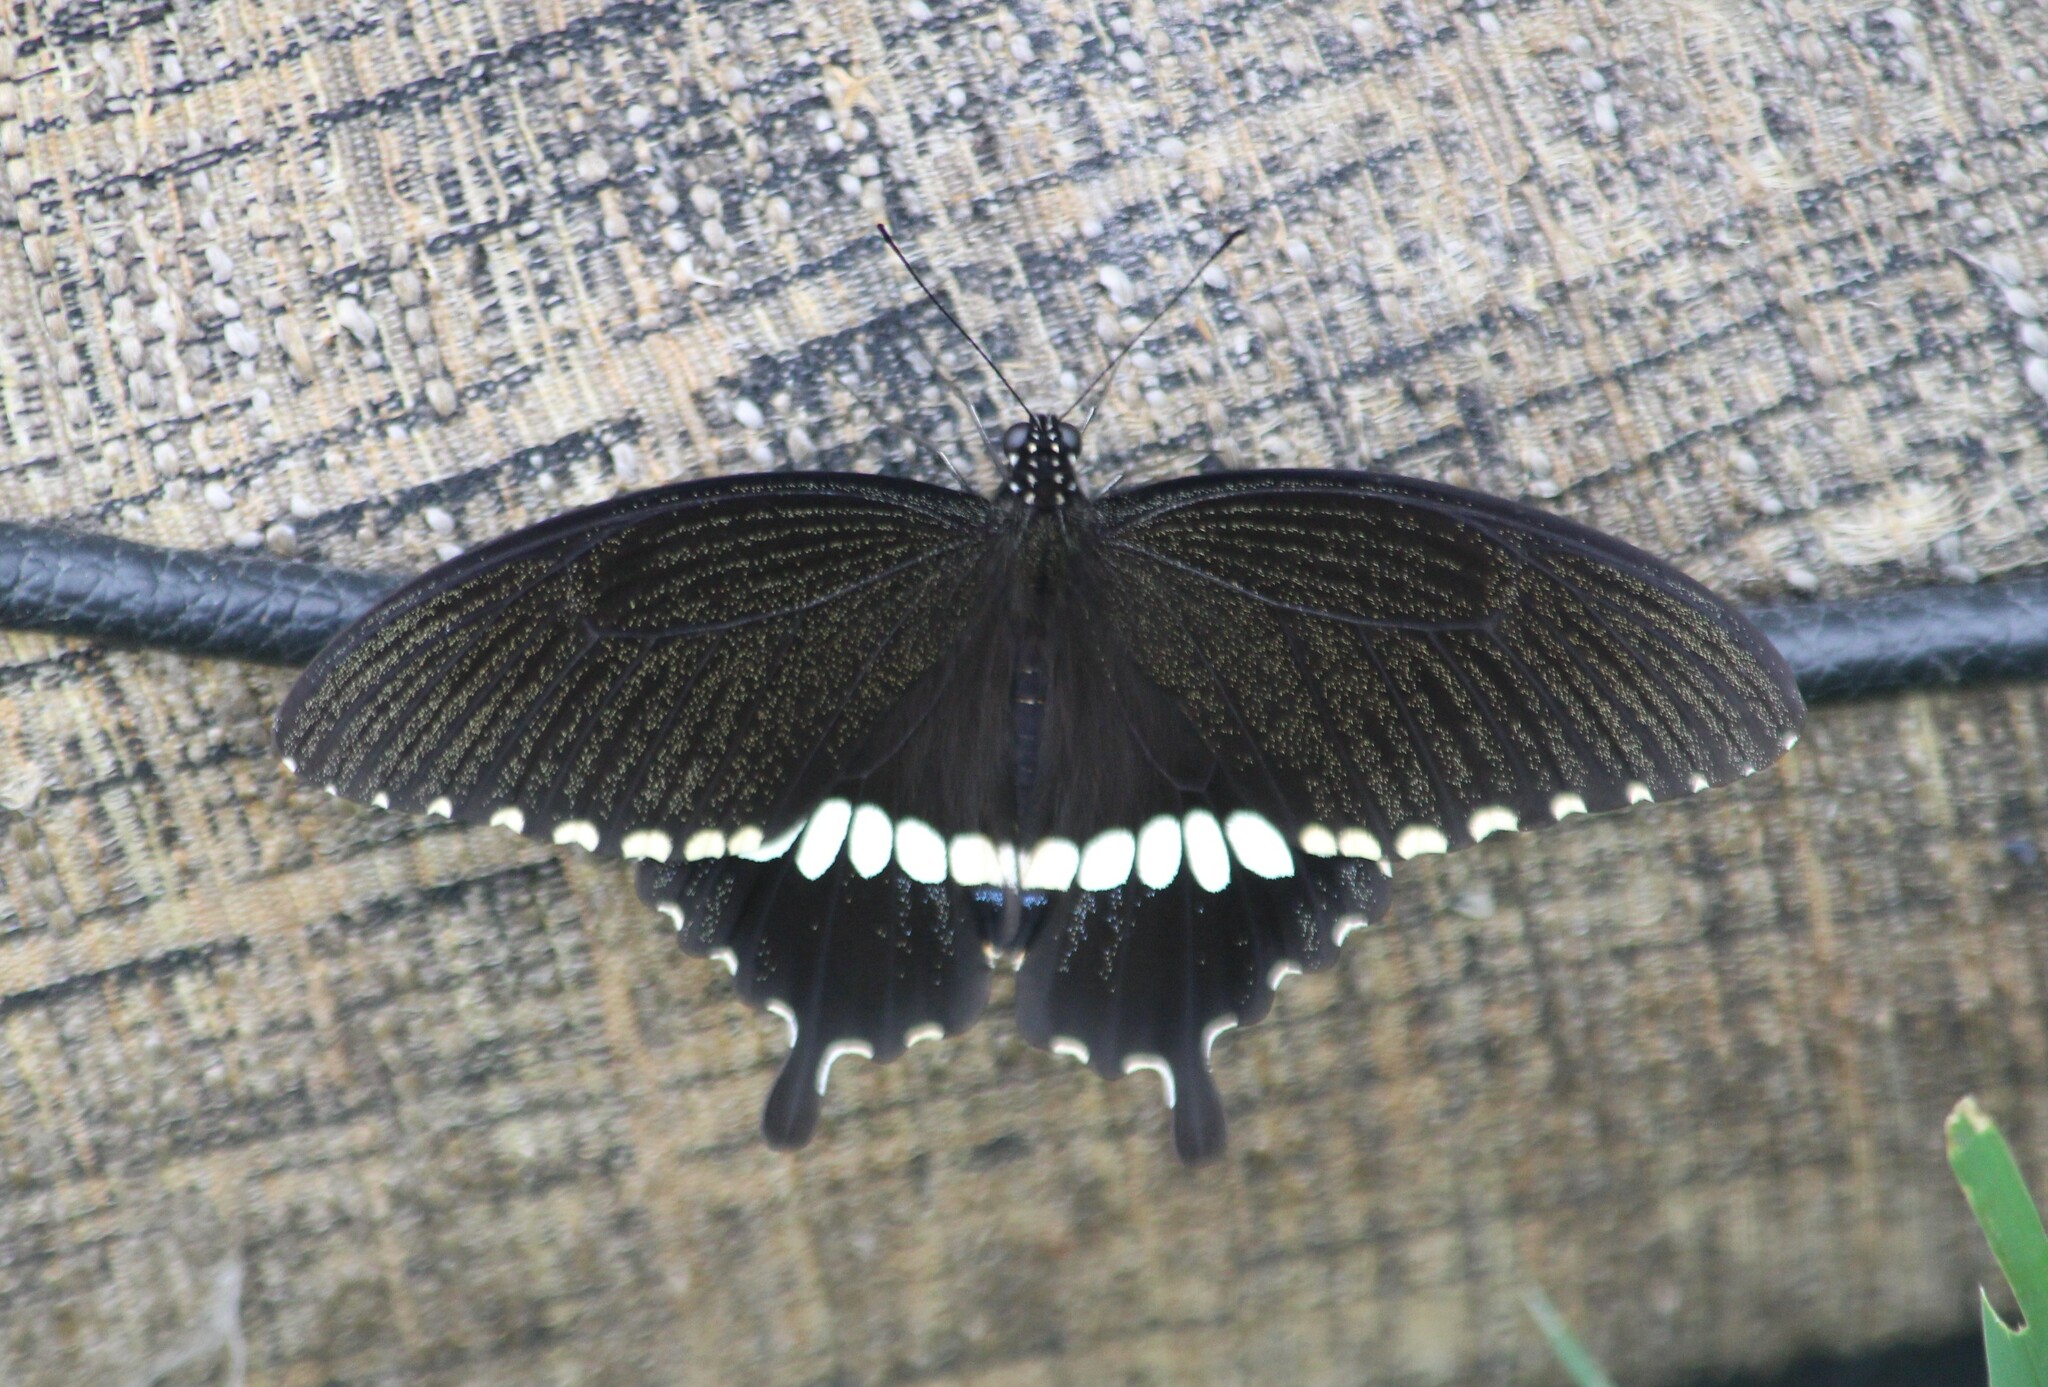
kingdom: Animalia
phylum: Arthropoda
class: Insecta
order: Lepidoptera
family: Papilionidae
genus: Papilio
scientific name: Papilio polytes
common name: Common mormon
